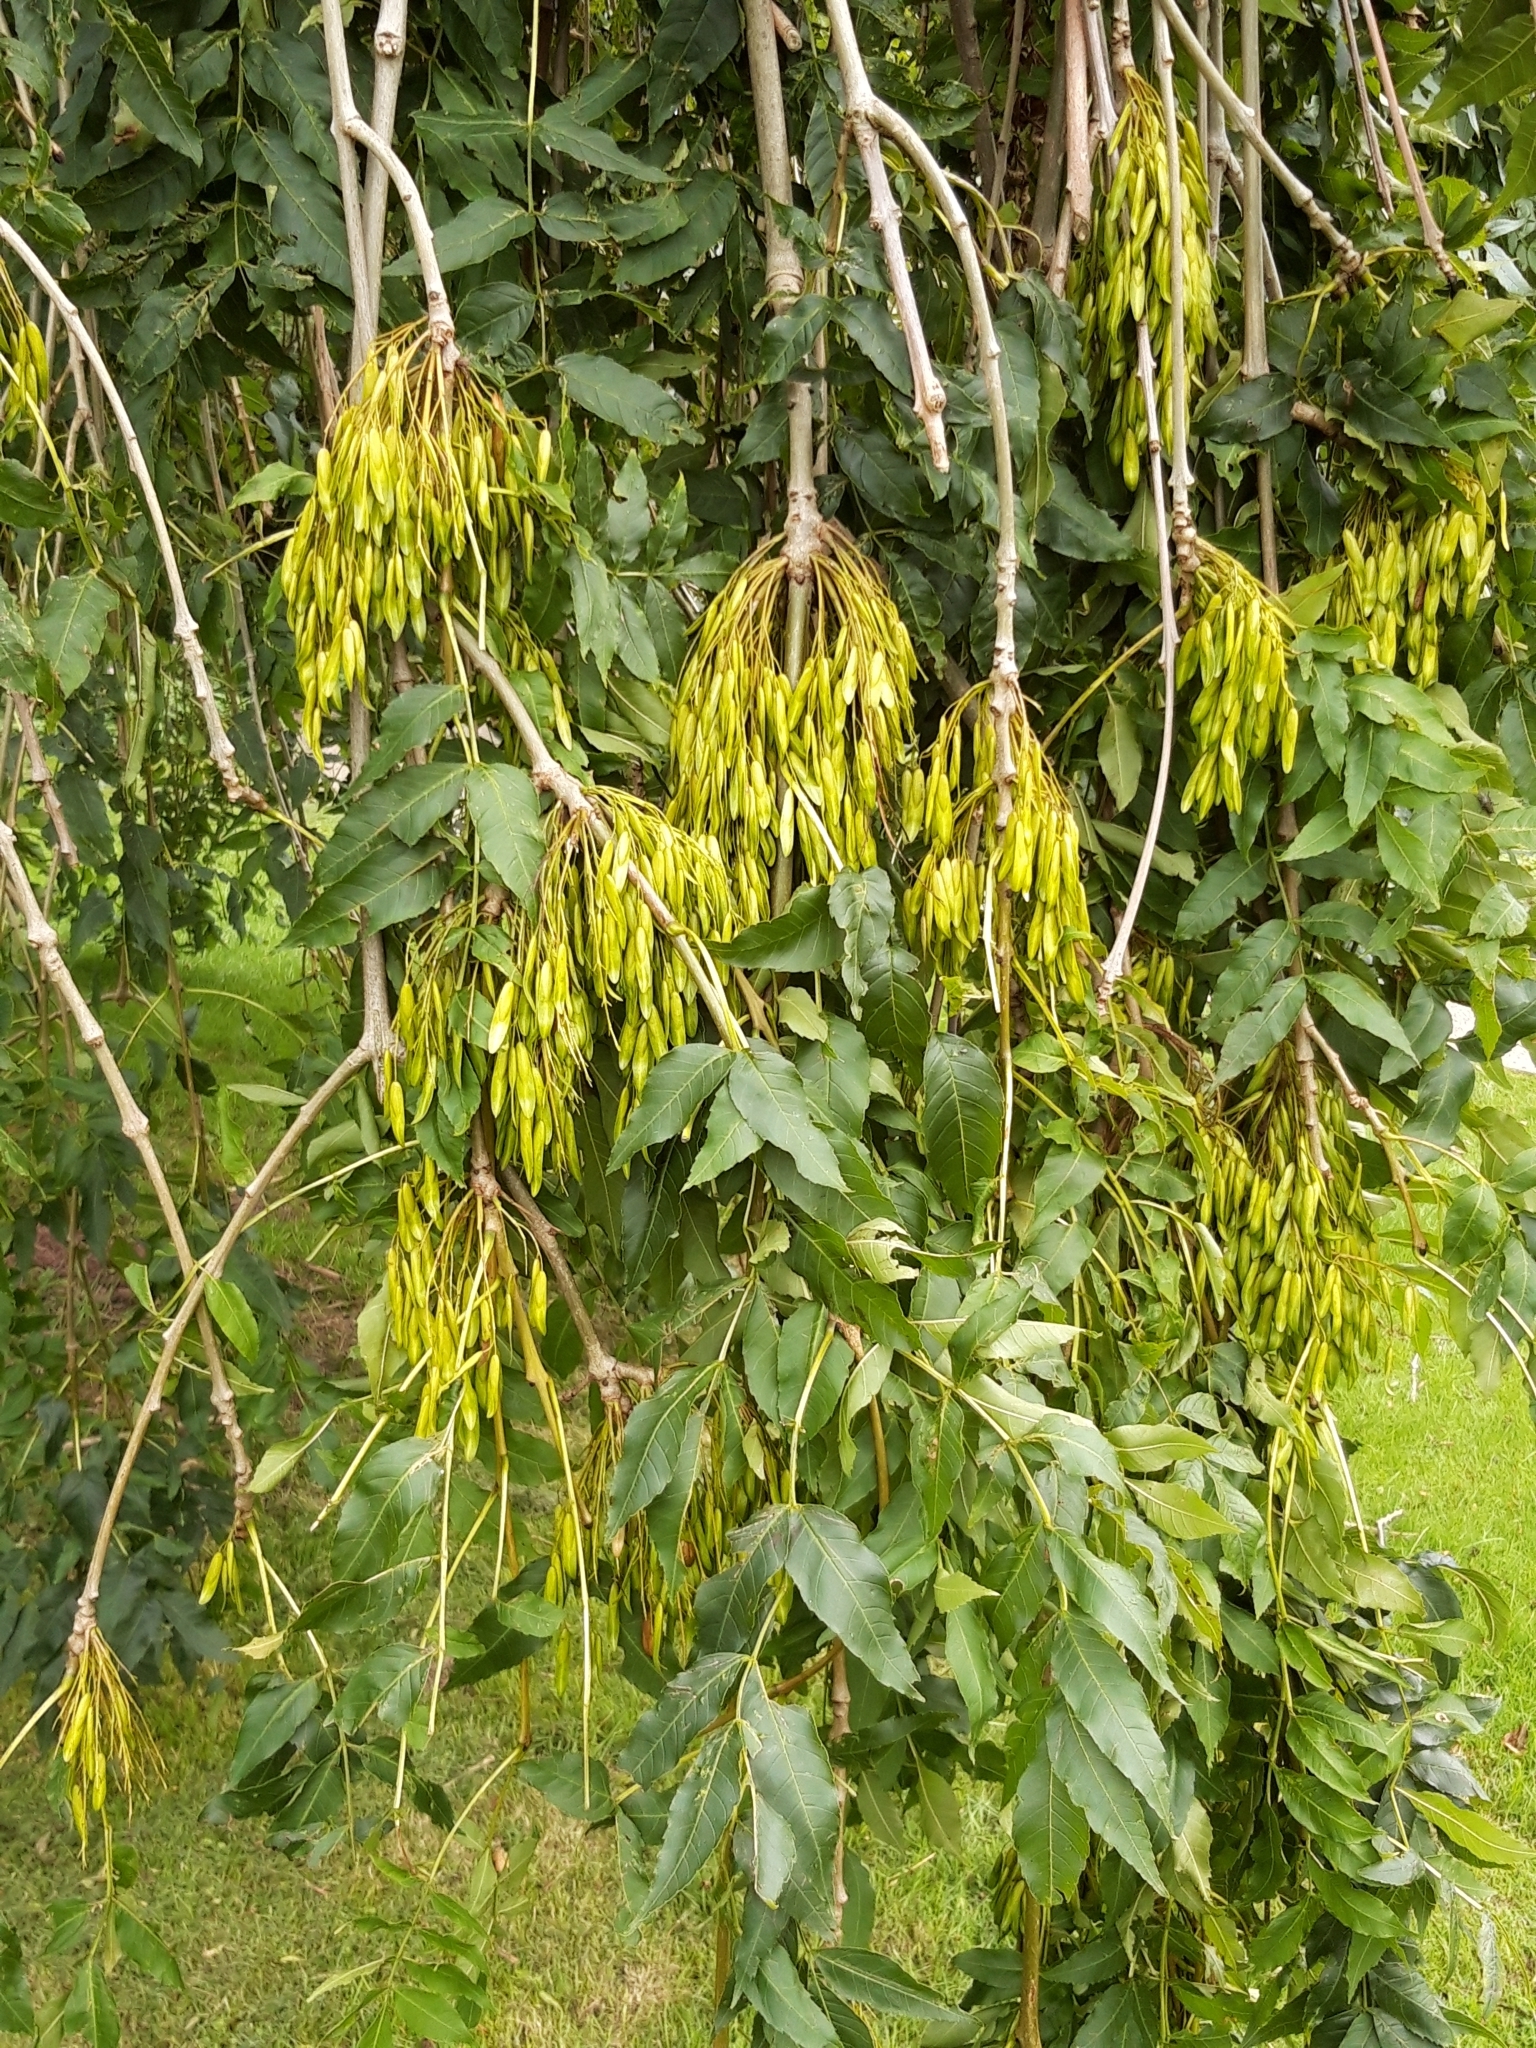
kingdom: Plantae
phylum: Tracheophyta
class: Magnoliopsida
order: Lamiales
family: Oleaceae
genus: Fraxinus
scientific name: Fraxinus excelsior
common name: European ash
